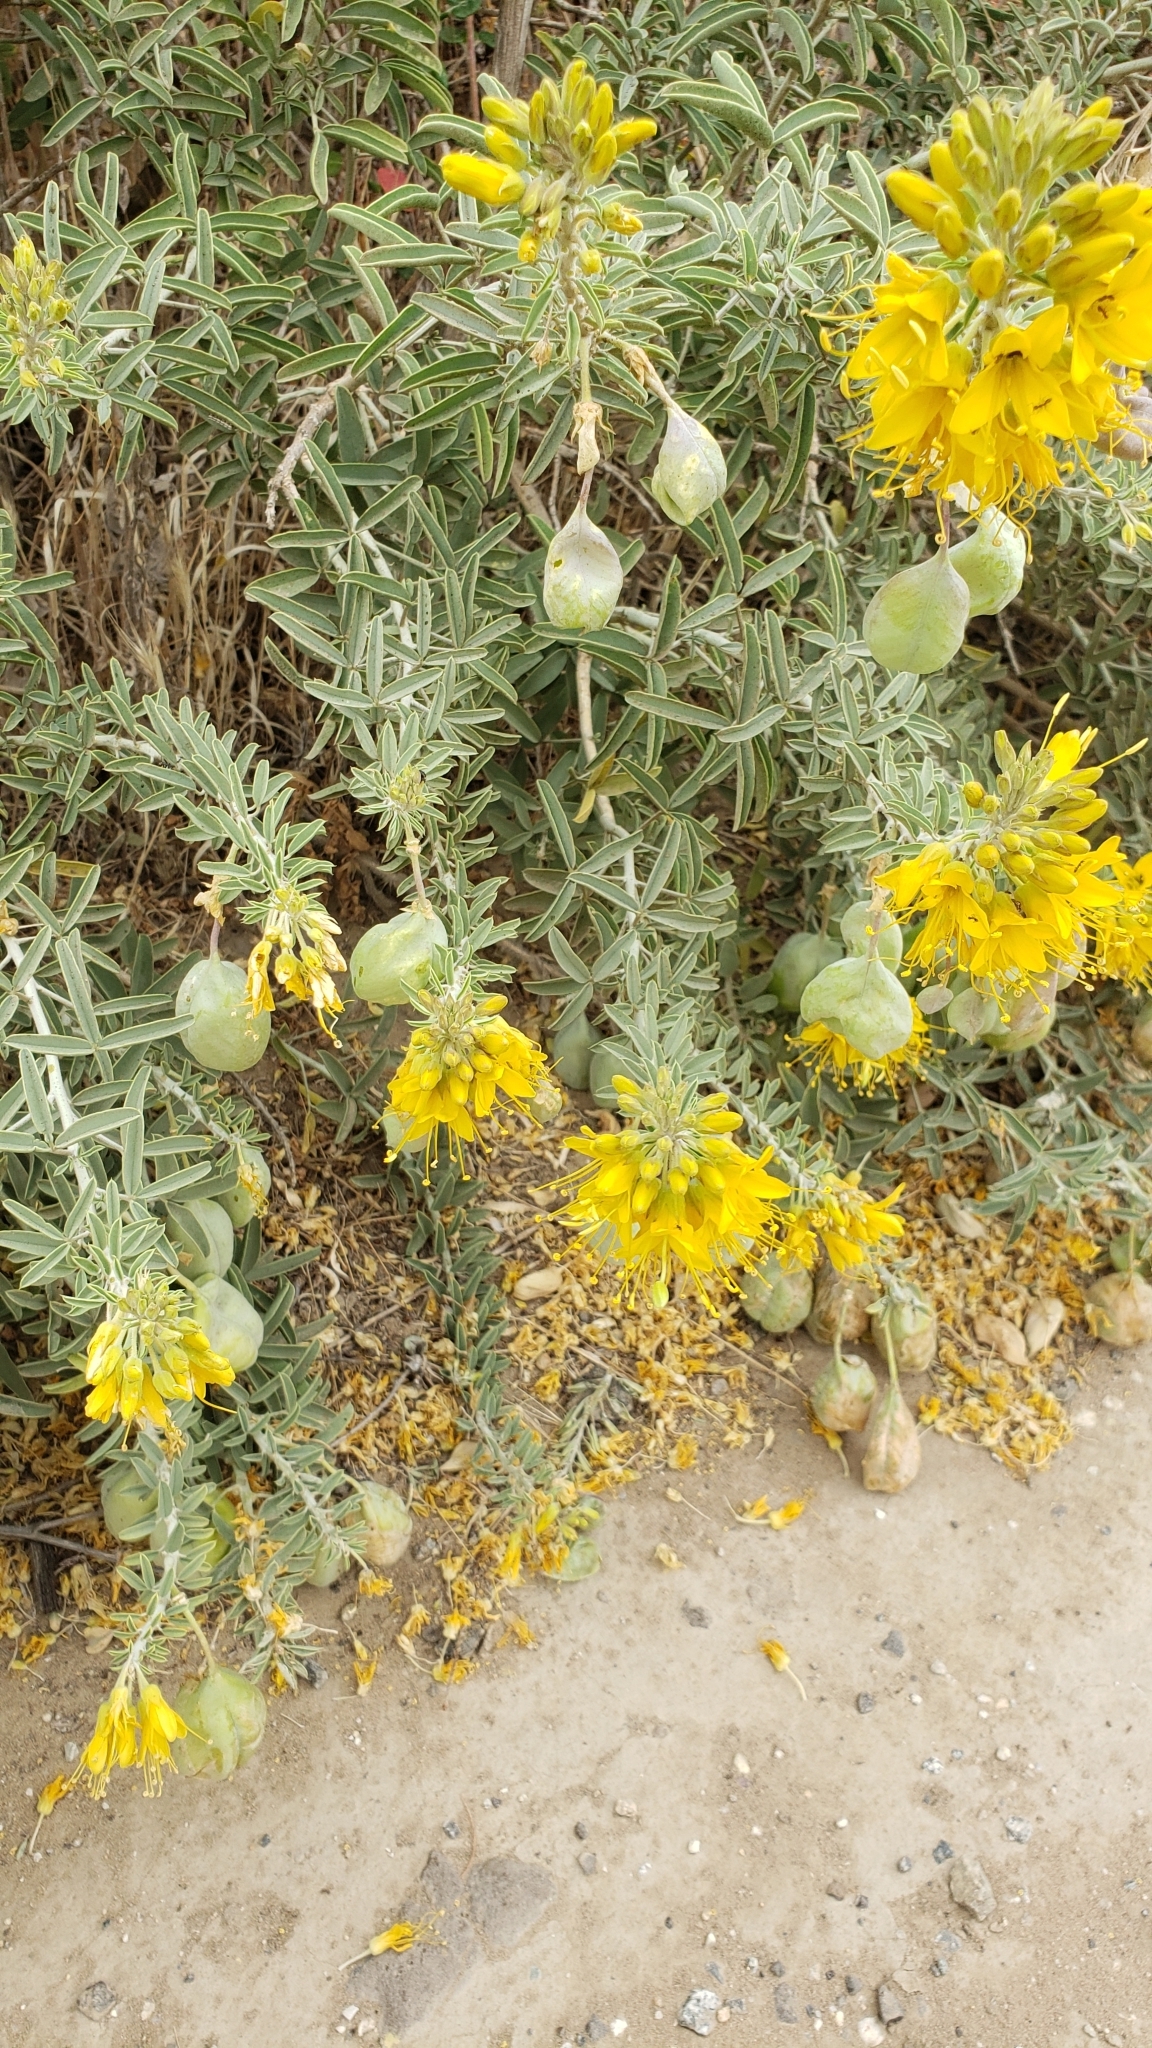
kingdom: Plantae
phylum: Tracheophyta
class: Magnoliopsida
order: Brassicales
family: Cleomaceae
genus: Cleomella
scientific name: Cleomella arborea
